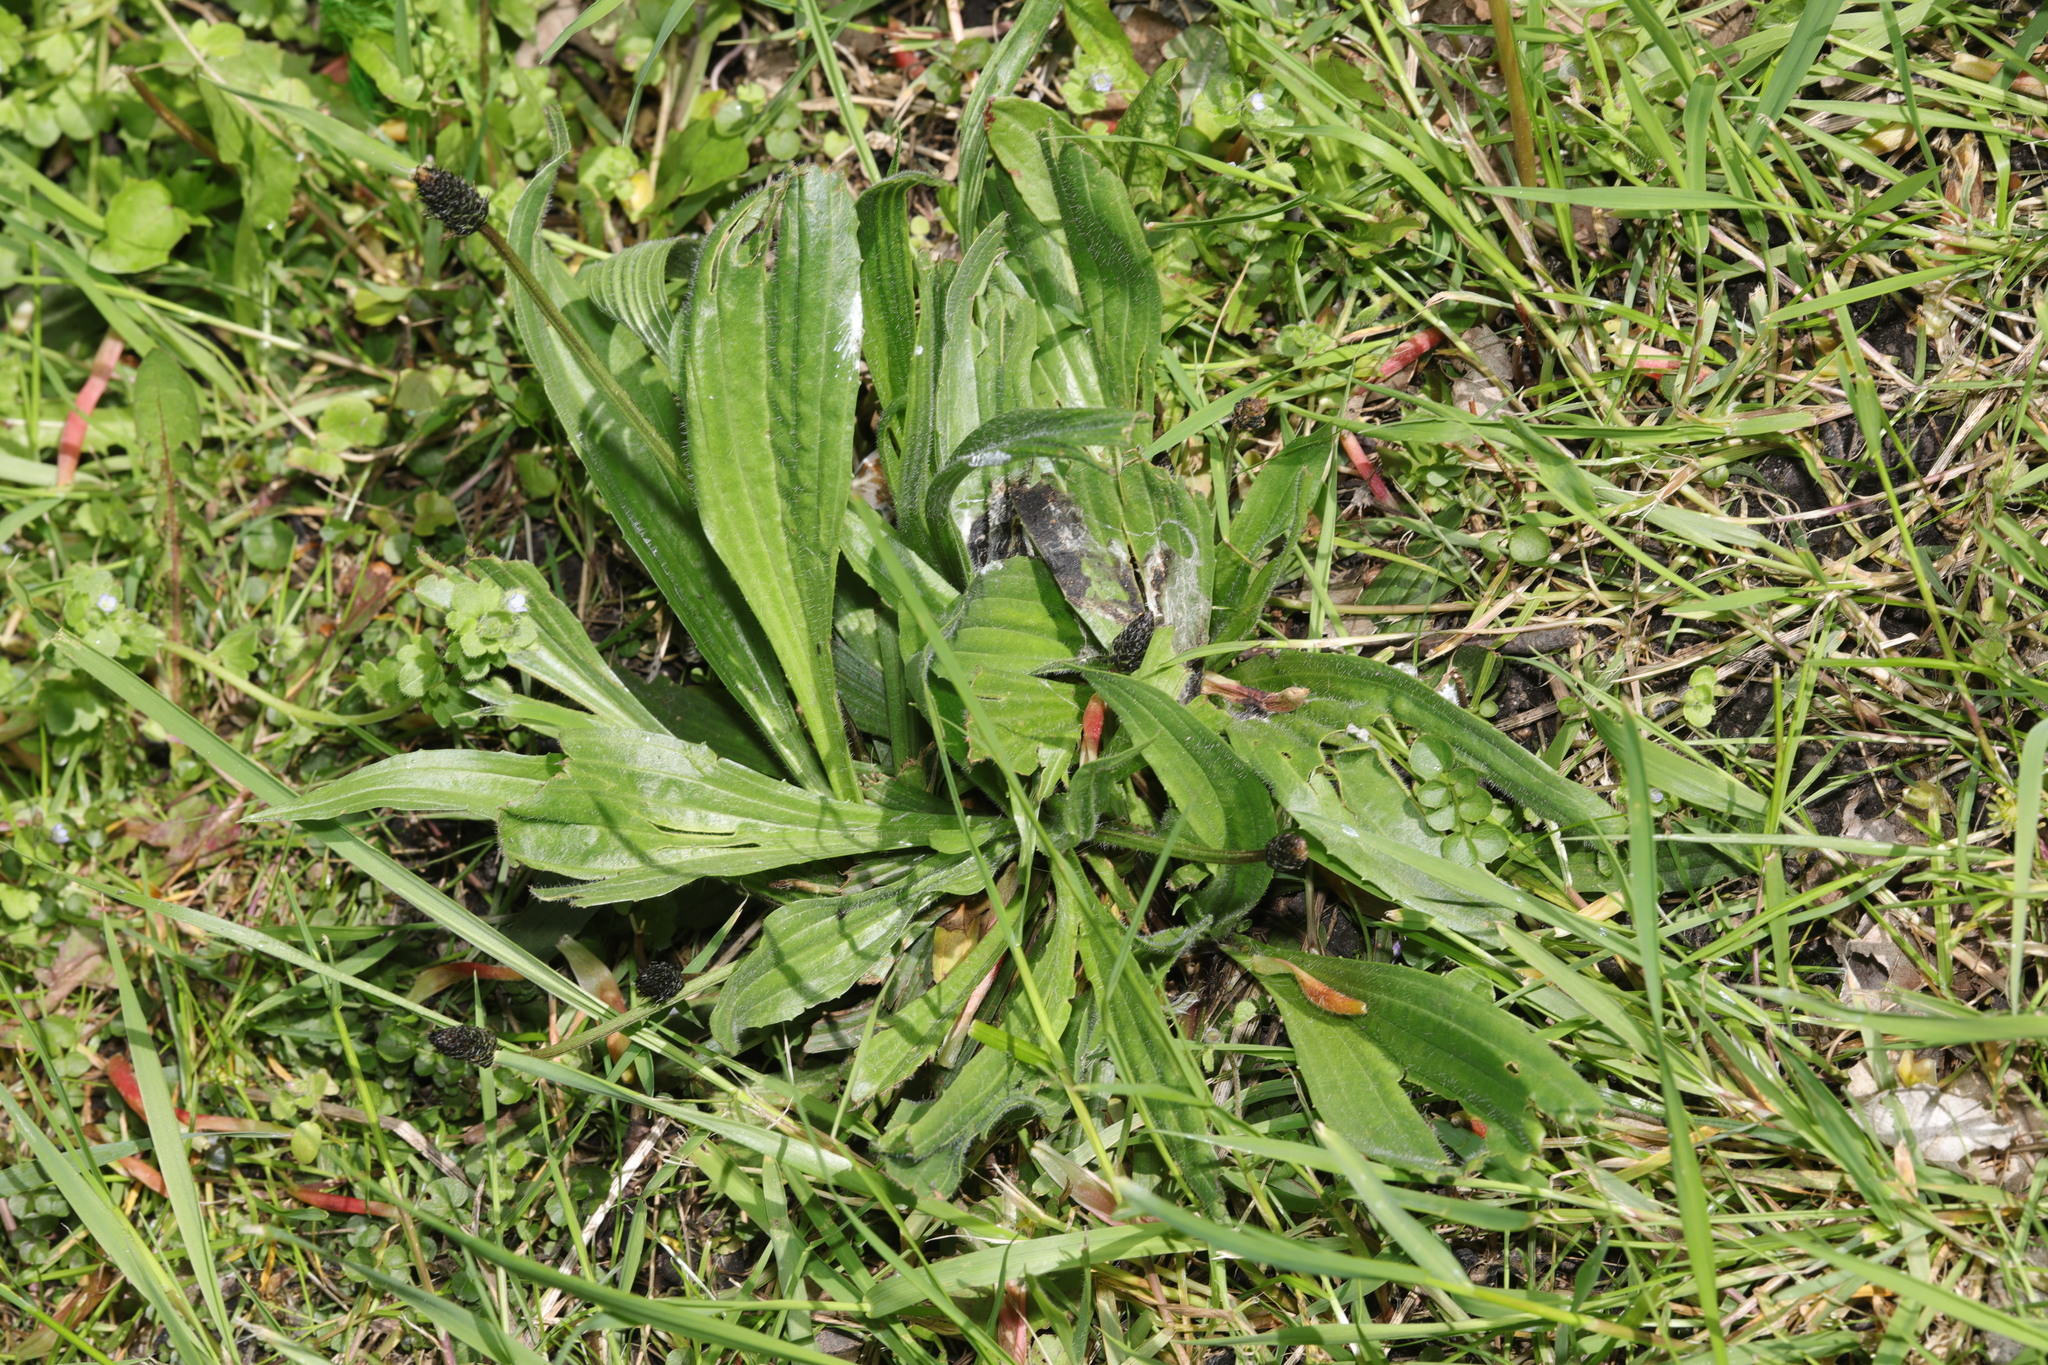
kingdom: Plantae
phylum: Tracheophyta
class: Magnoliopsida
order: Lamiales
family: Plantaginaceae
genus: Plantago
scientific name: Plantago lanceolata
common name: Ribwort plantain
